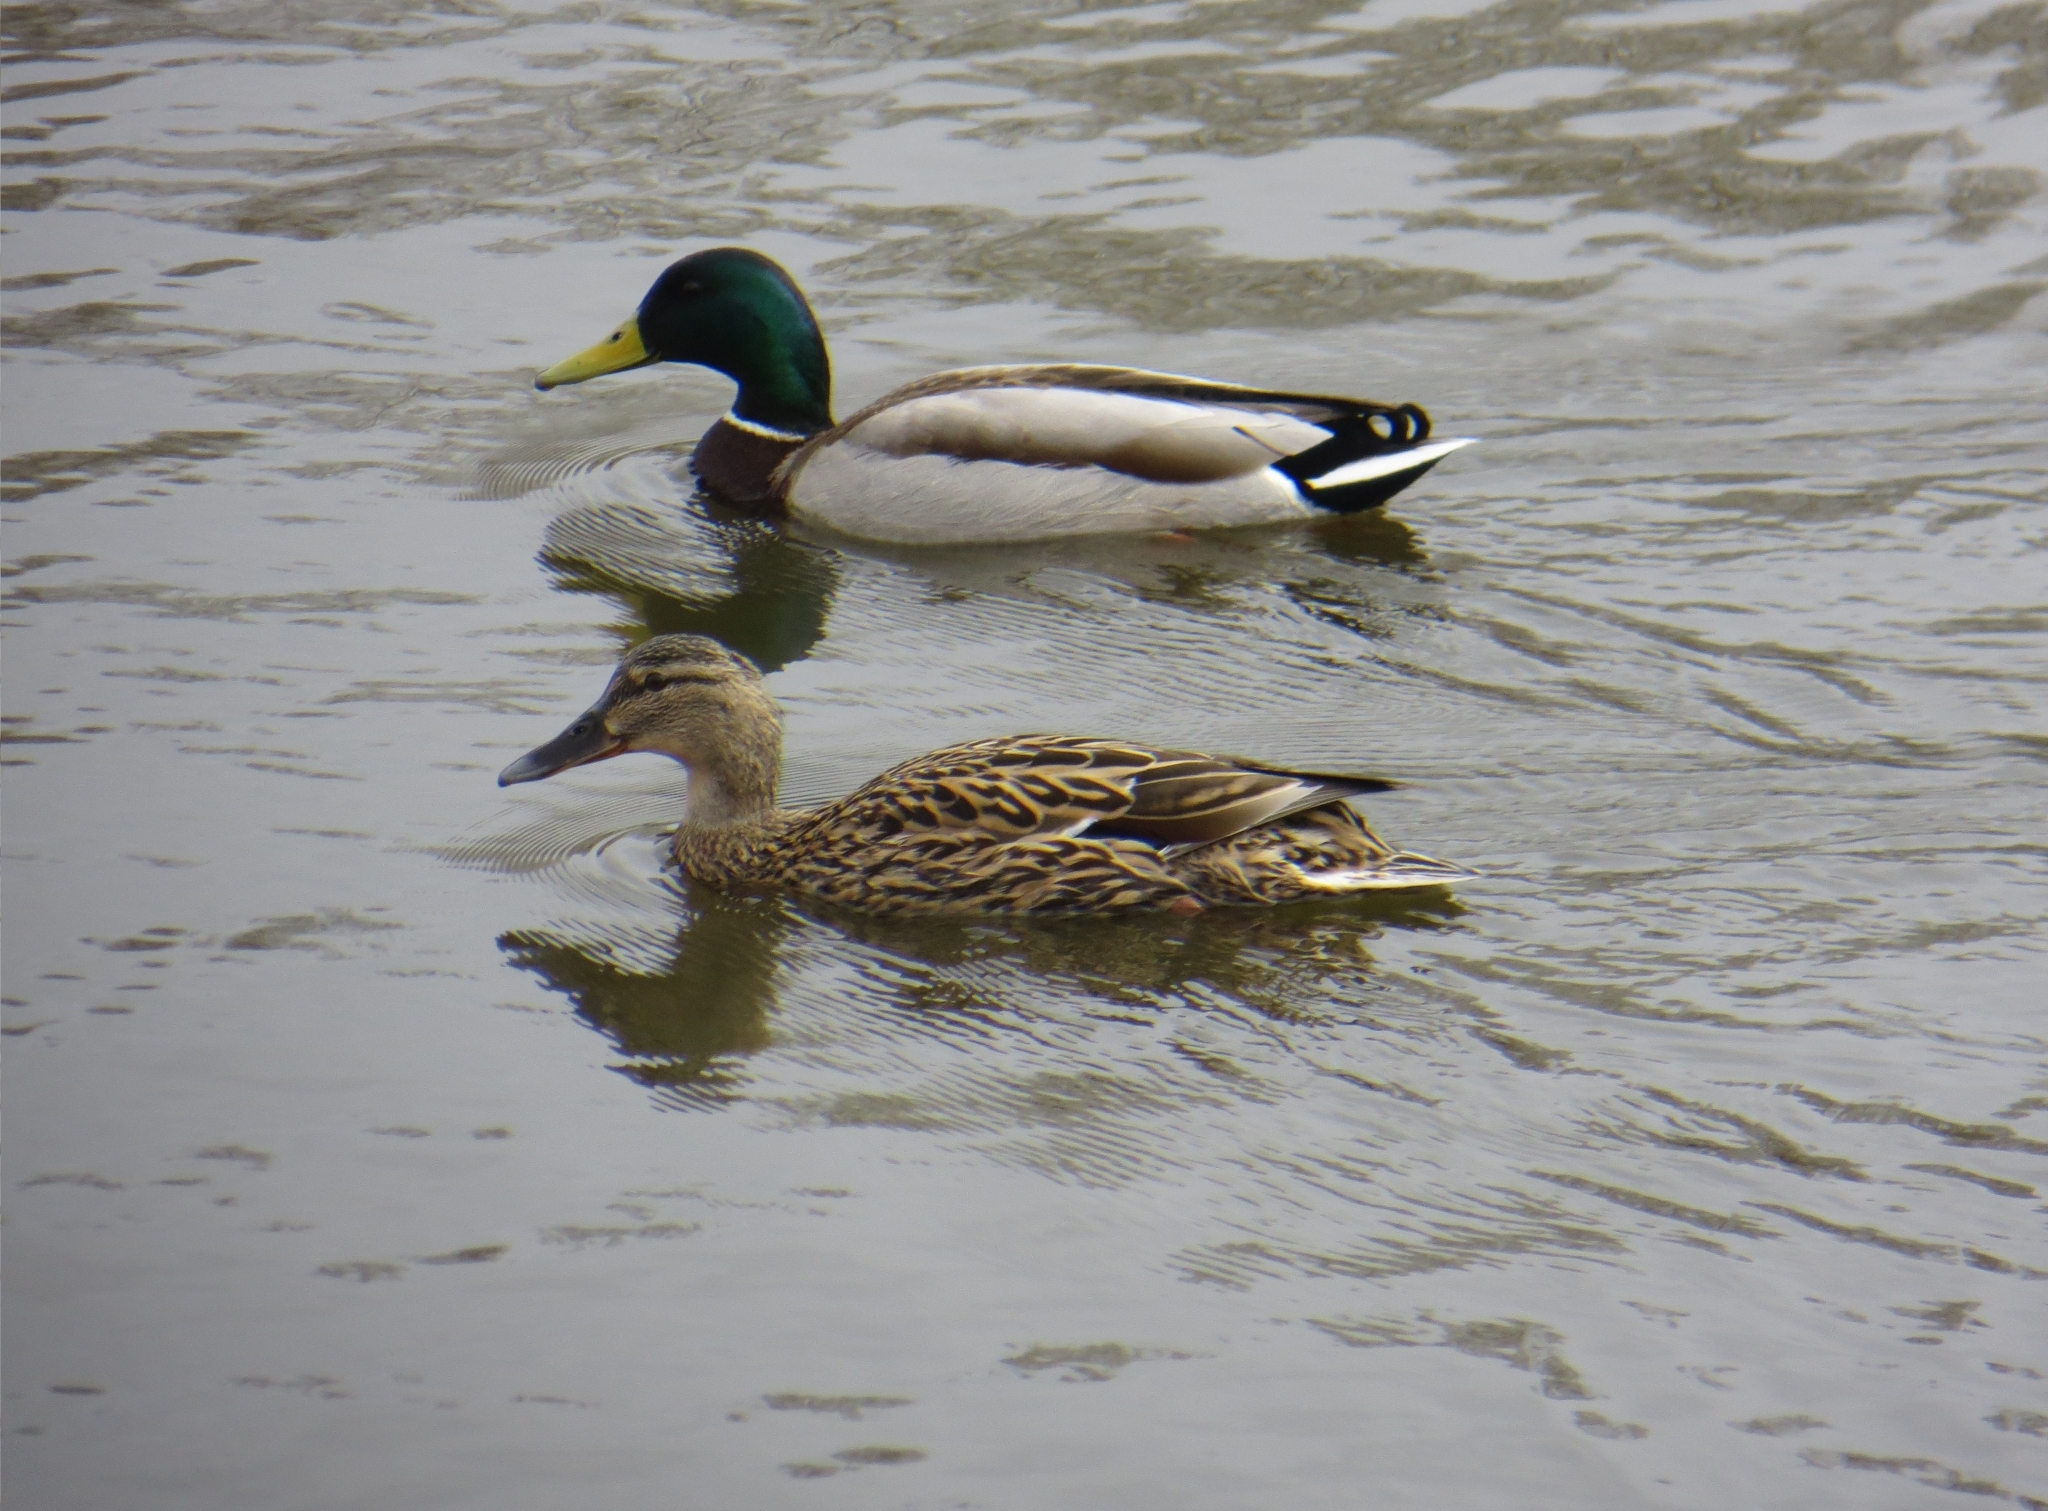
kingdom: Animalia
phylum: Chordata
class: Aves
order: Anseriformes
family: Anatidae
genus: Anas
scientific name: Anas platyrhynchos
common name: Mallard
